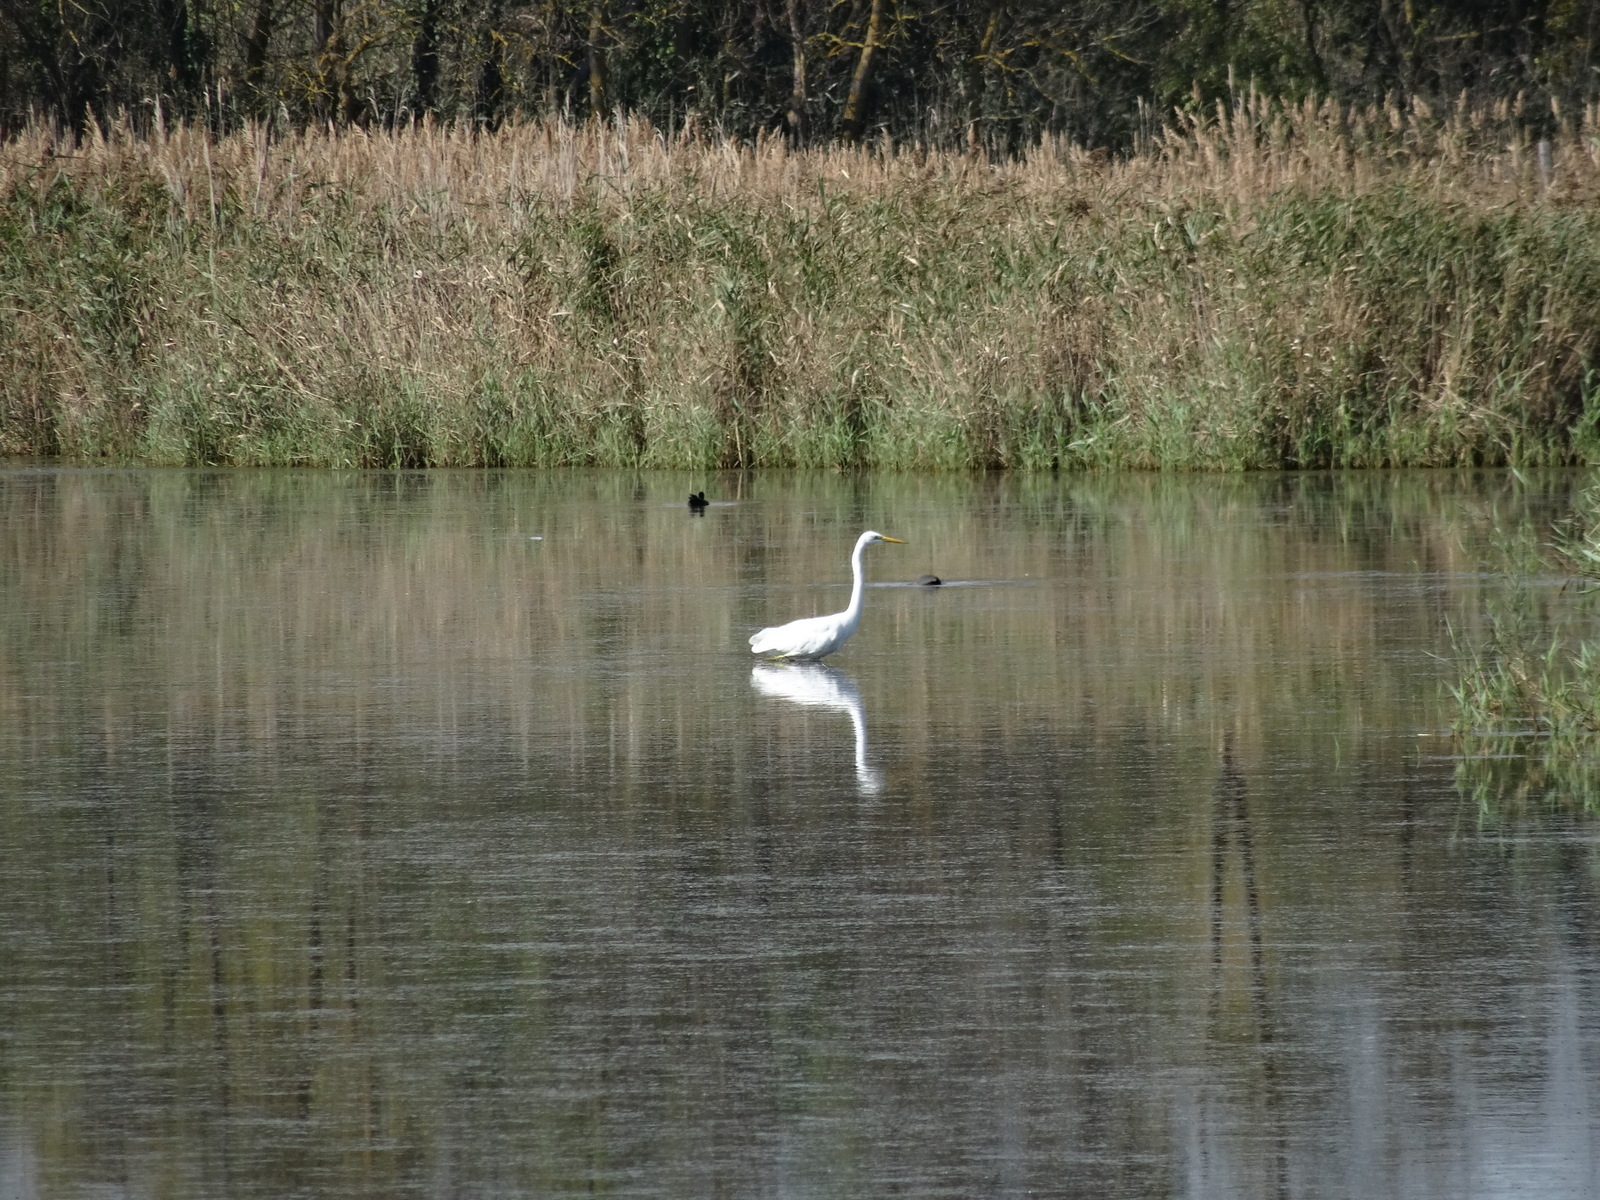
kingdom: Animalia
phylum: Chordata
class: Aves
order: Pelecaniformes
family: Ardeidae
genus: Ardea
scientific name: Ardea alba
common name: Great egret
